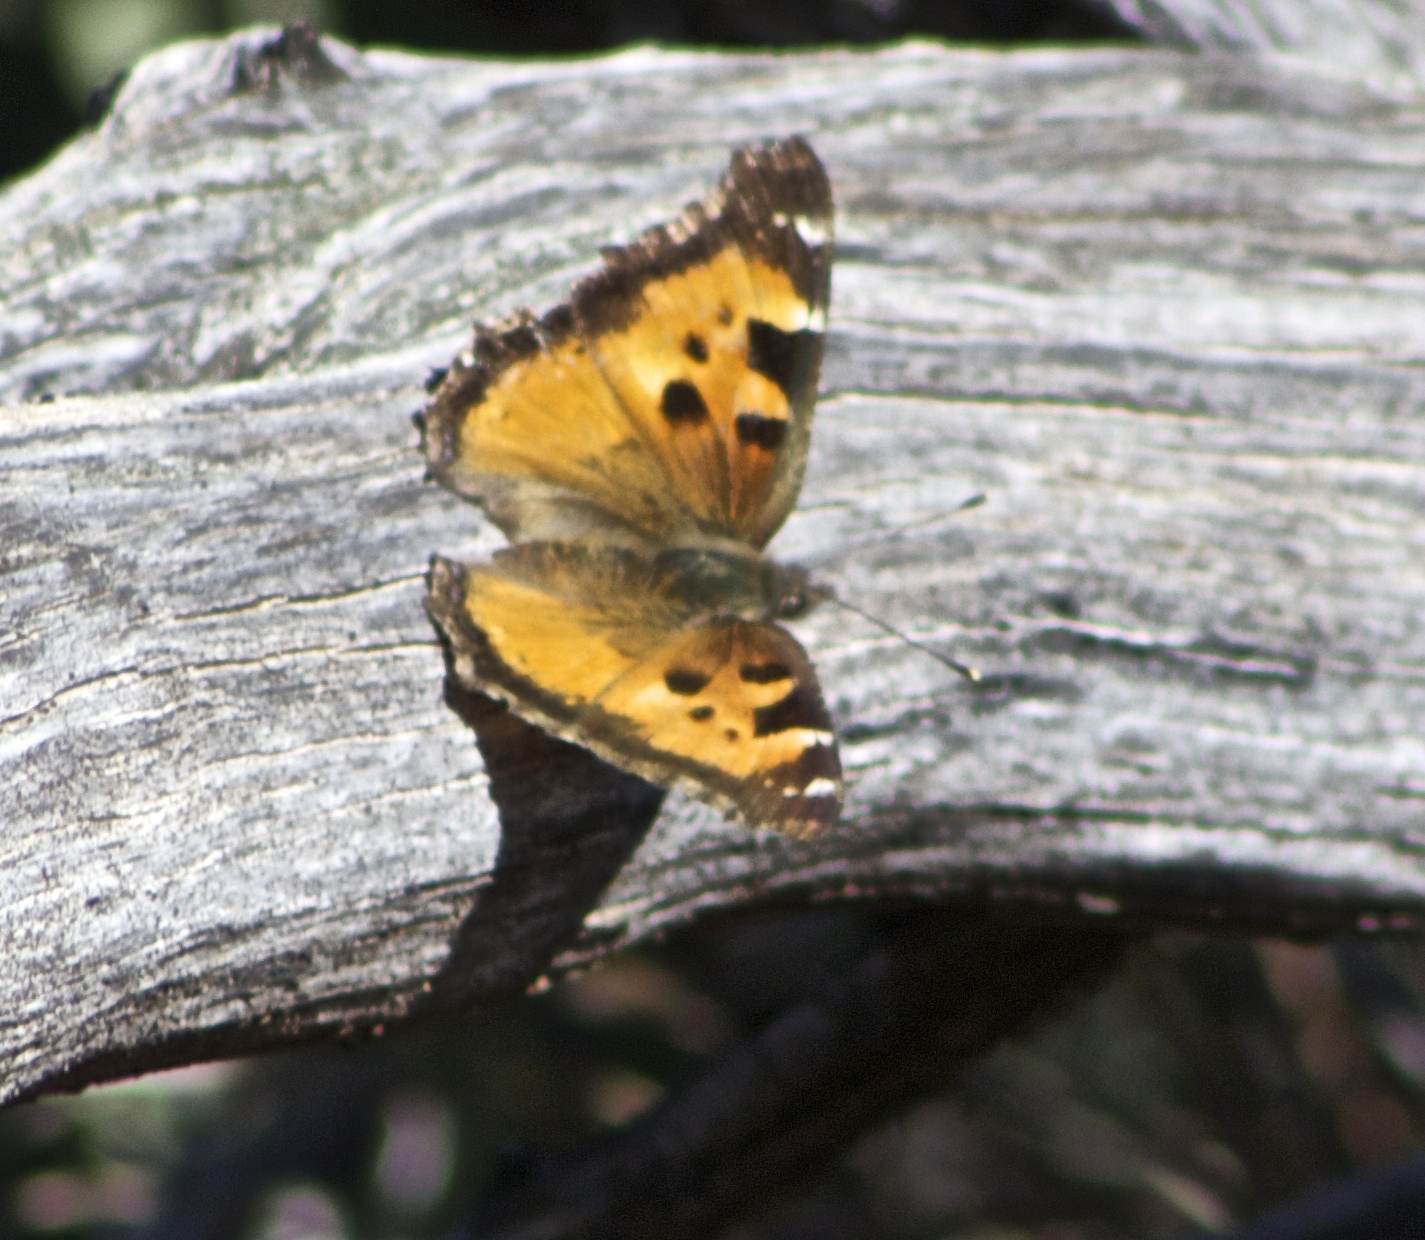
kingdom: Animalia
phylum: Arthropoda
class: Insecta
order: Lepidoptera
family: Nymphalidae
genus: Nymphalis
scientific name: Nymphalis californica
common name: California tortoiseshell
